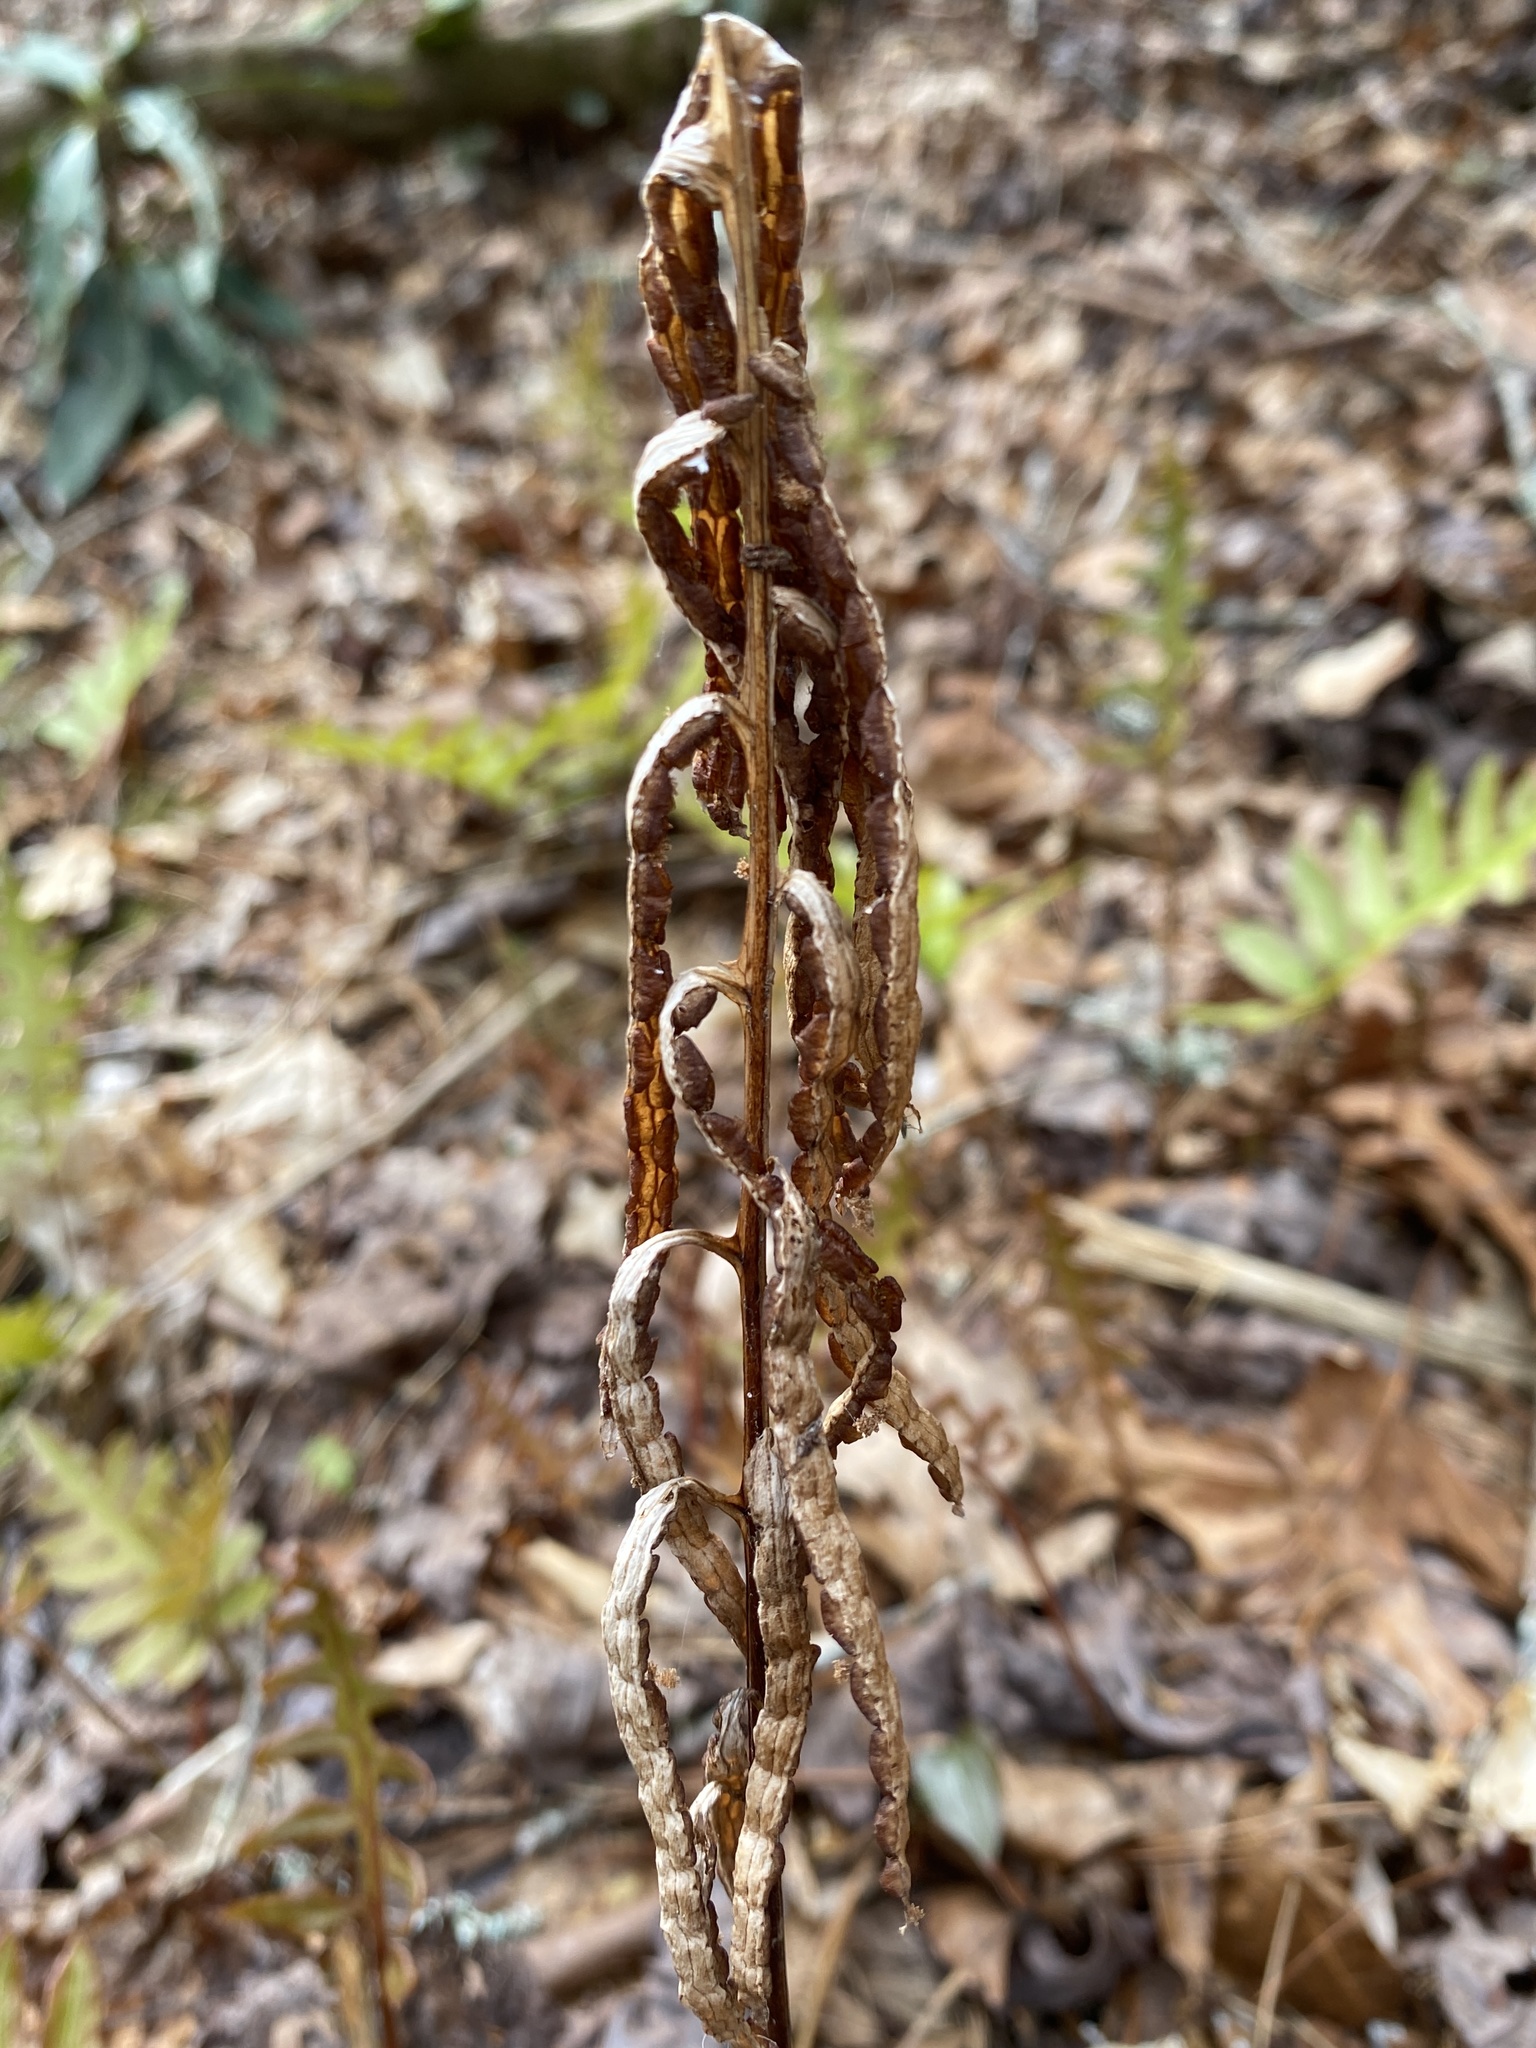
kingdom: Plantae
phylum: Tracheophyta
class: Polypodiopsida
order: Polypodiales
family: Blechnaceae
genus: Lorinseria
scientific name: Lorinseria areolata
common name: Dwarf chain fern
